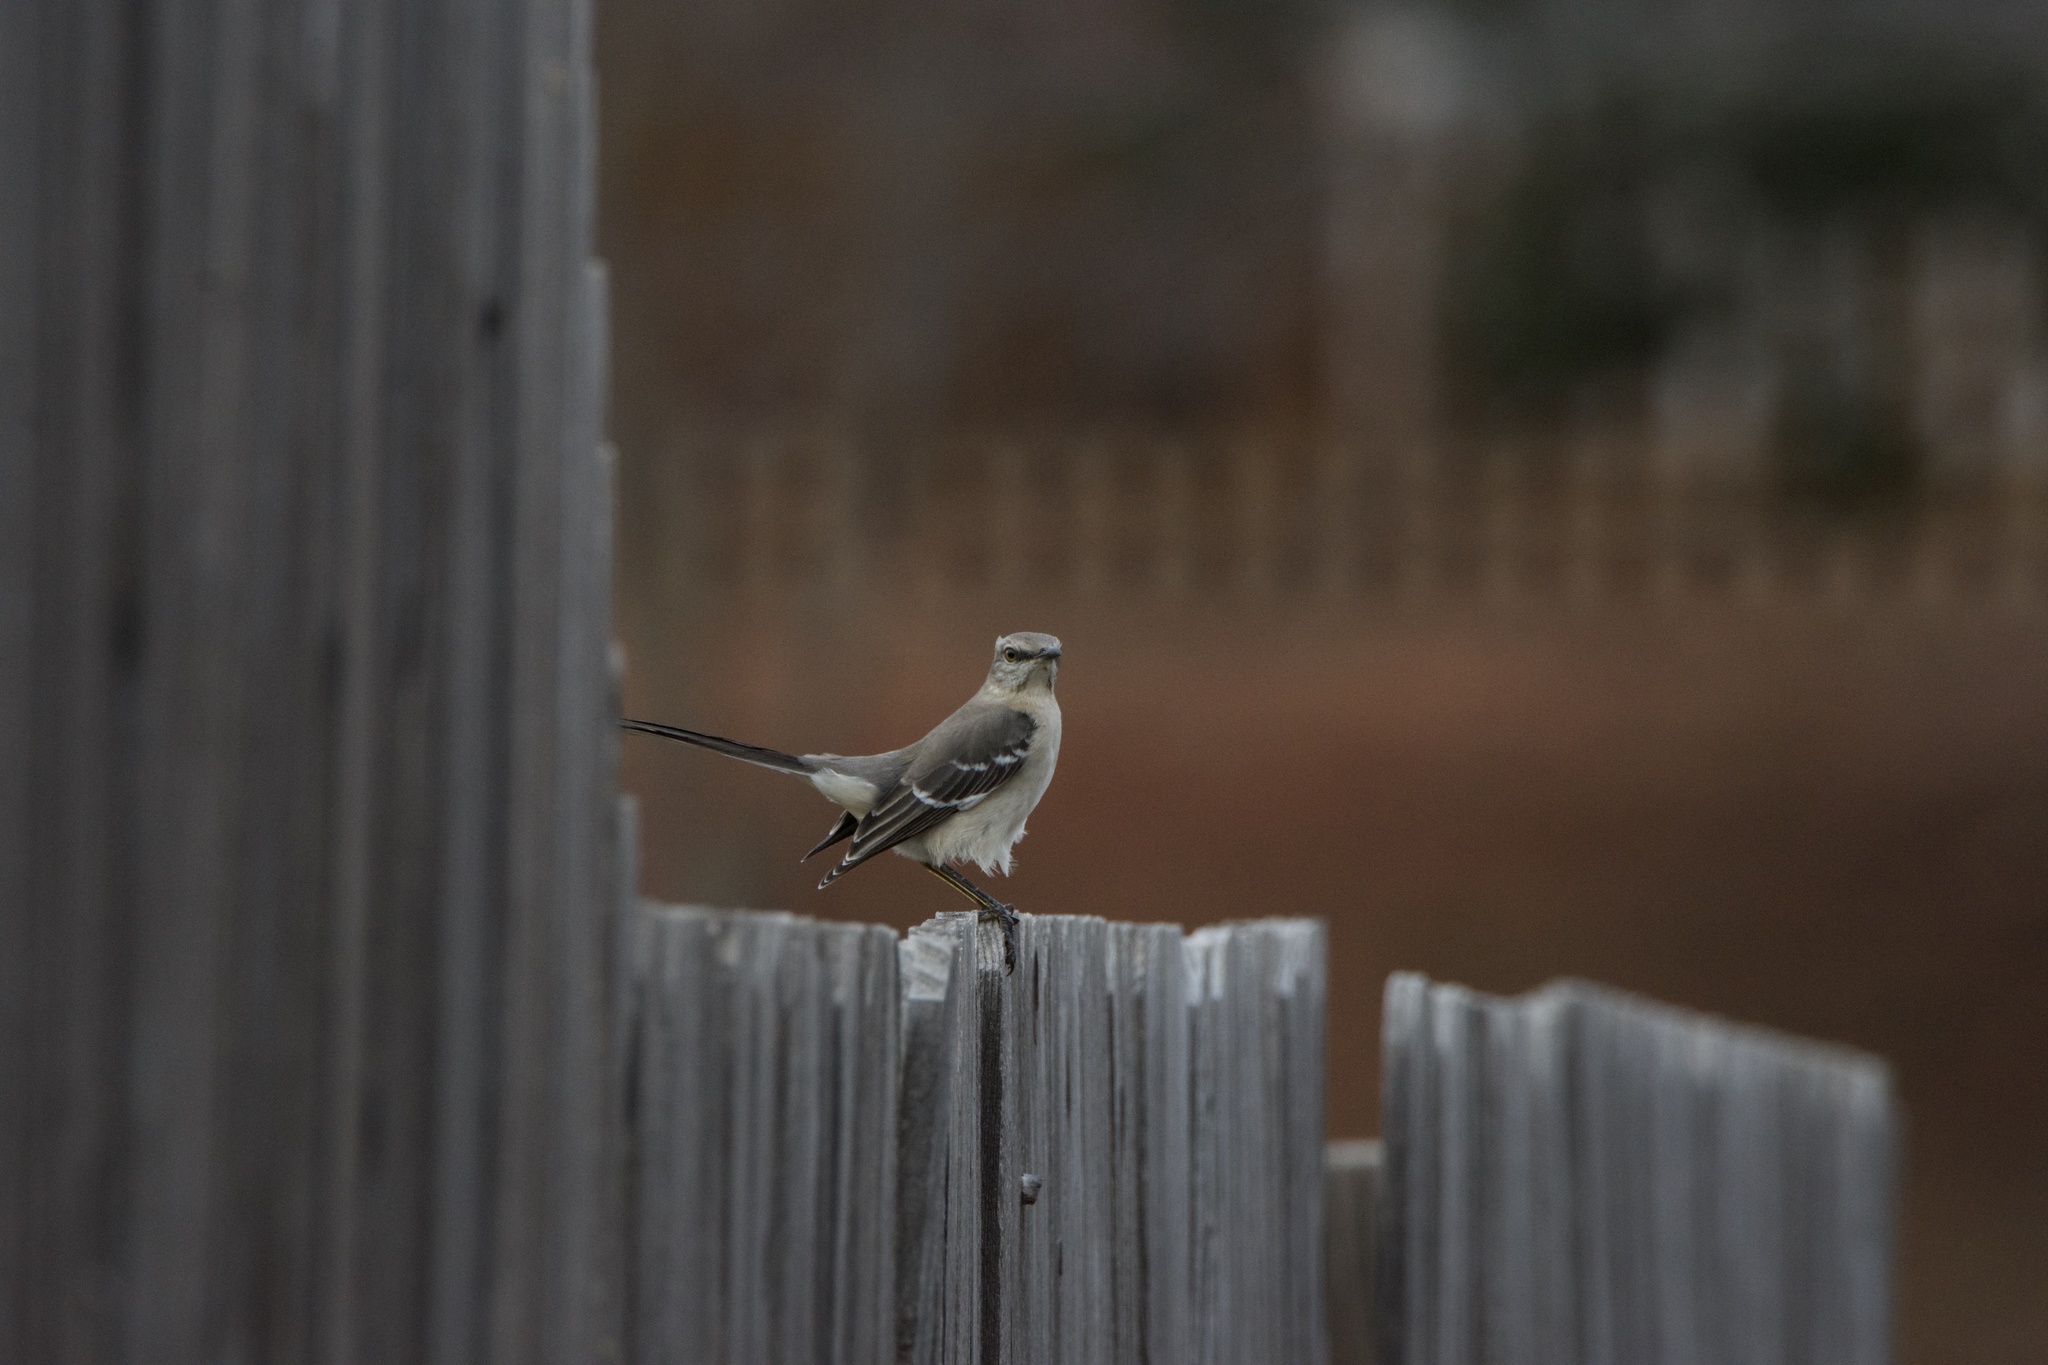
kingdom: Animalia
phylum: Chordata
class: Aves
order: Passeriformes
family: Mimidae
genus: Mimus
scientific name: Mimus polyglottos
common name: Northern mockingbird
